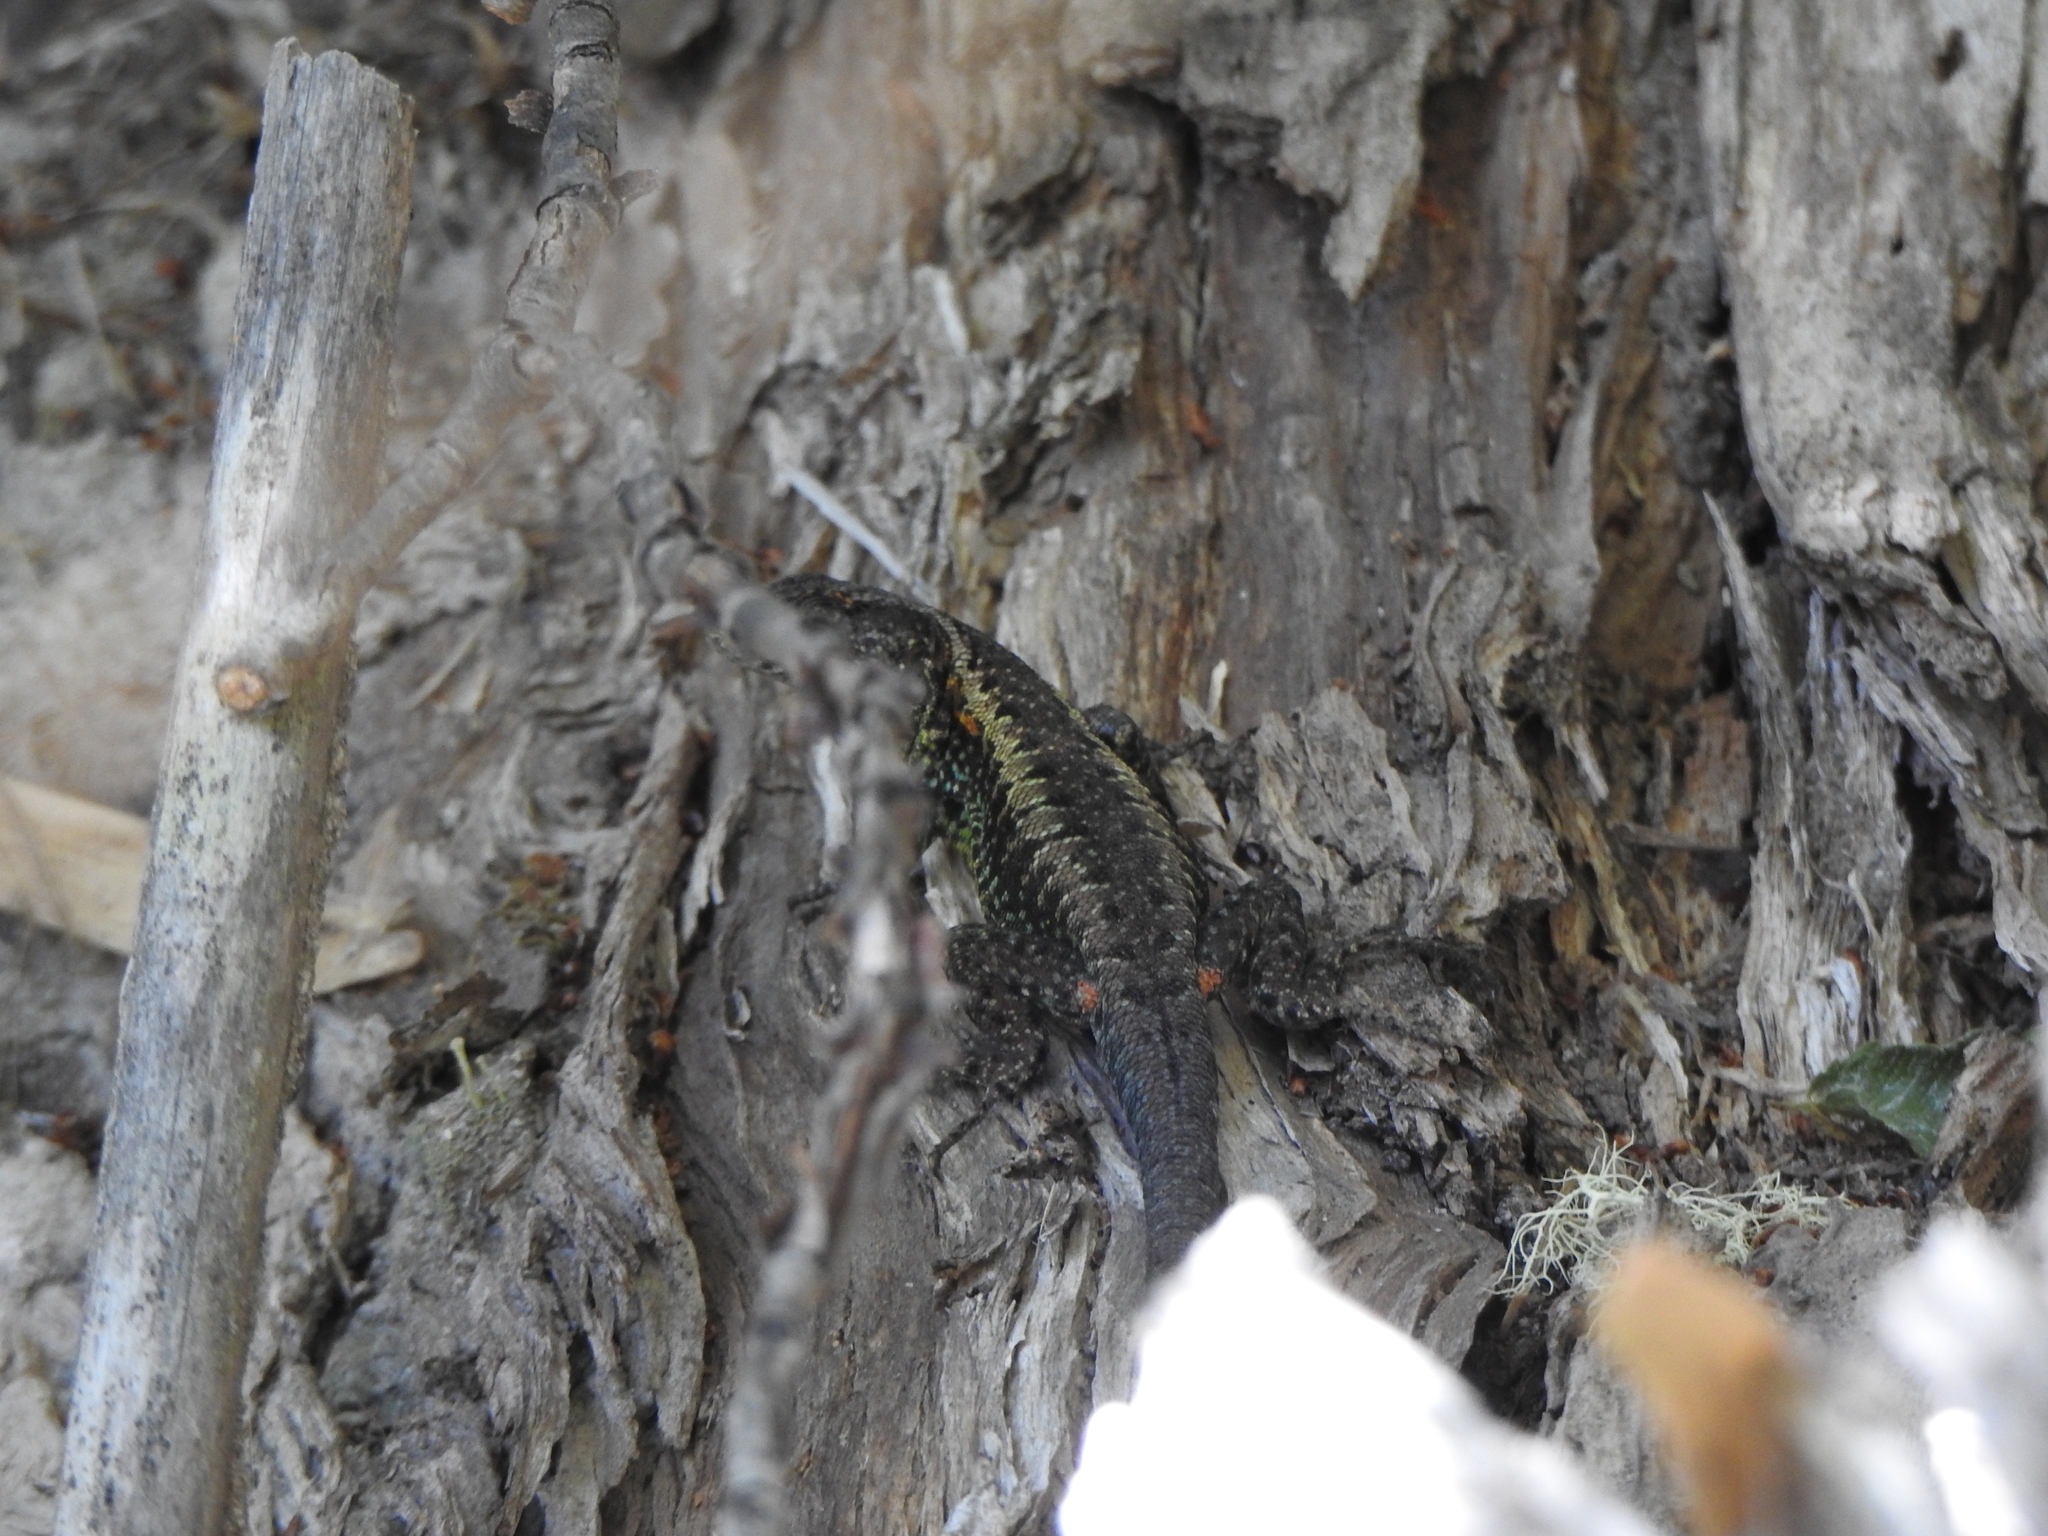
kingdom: Animalia
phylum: Chordata
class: Squamata
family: Liolaemidae
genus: Liolaemus
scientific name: Liolaemus pictus
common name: Painted tree iguana
